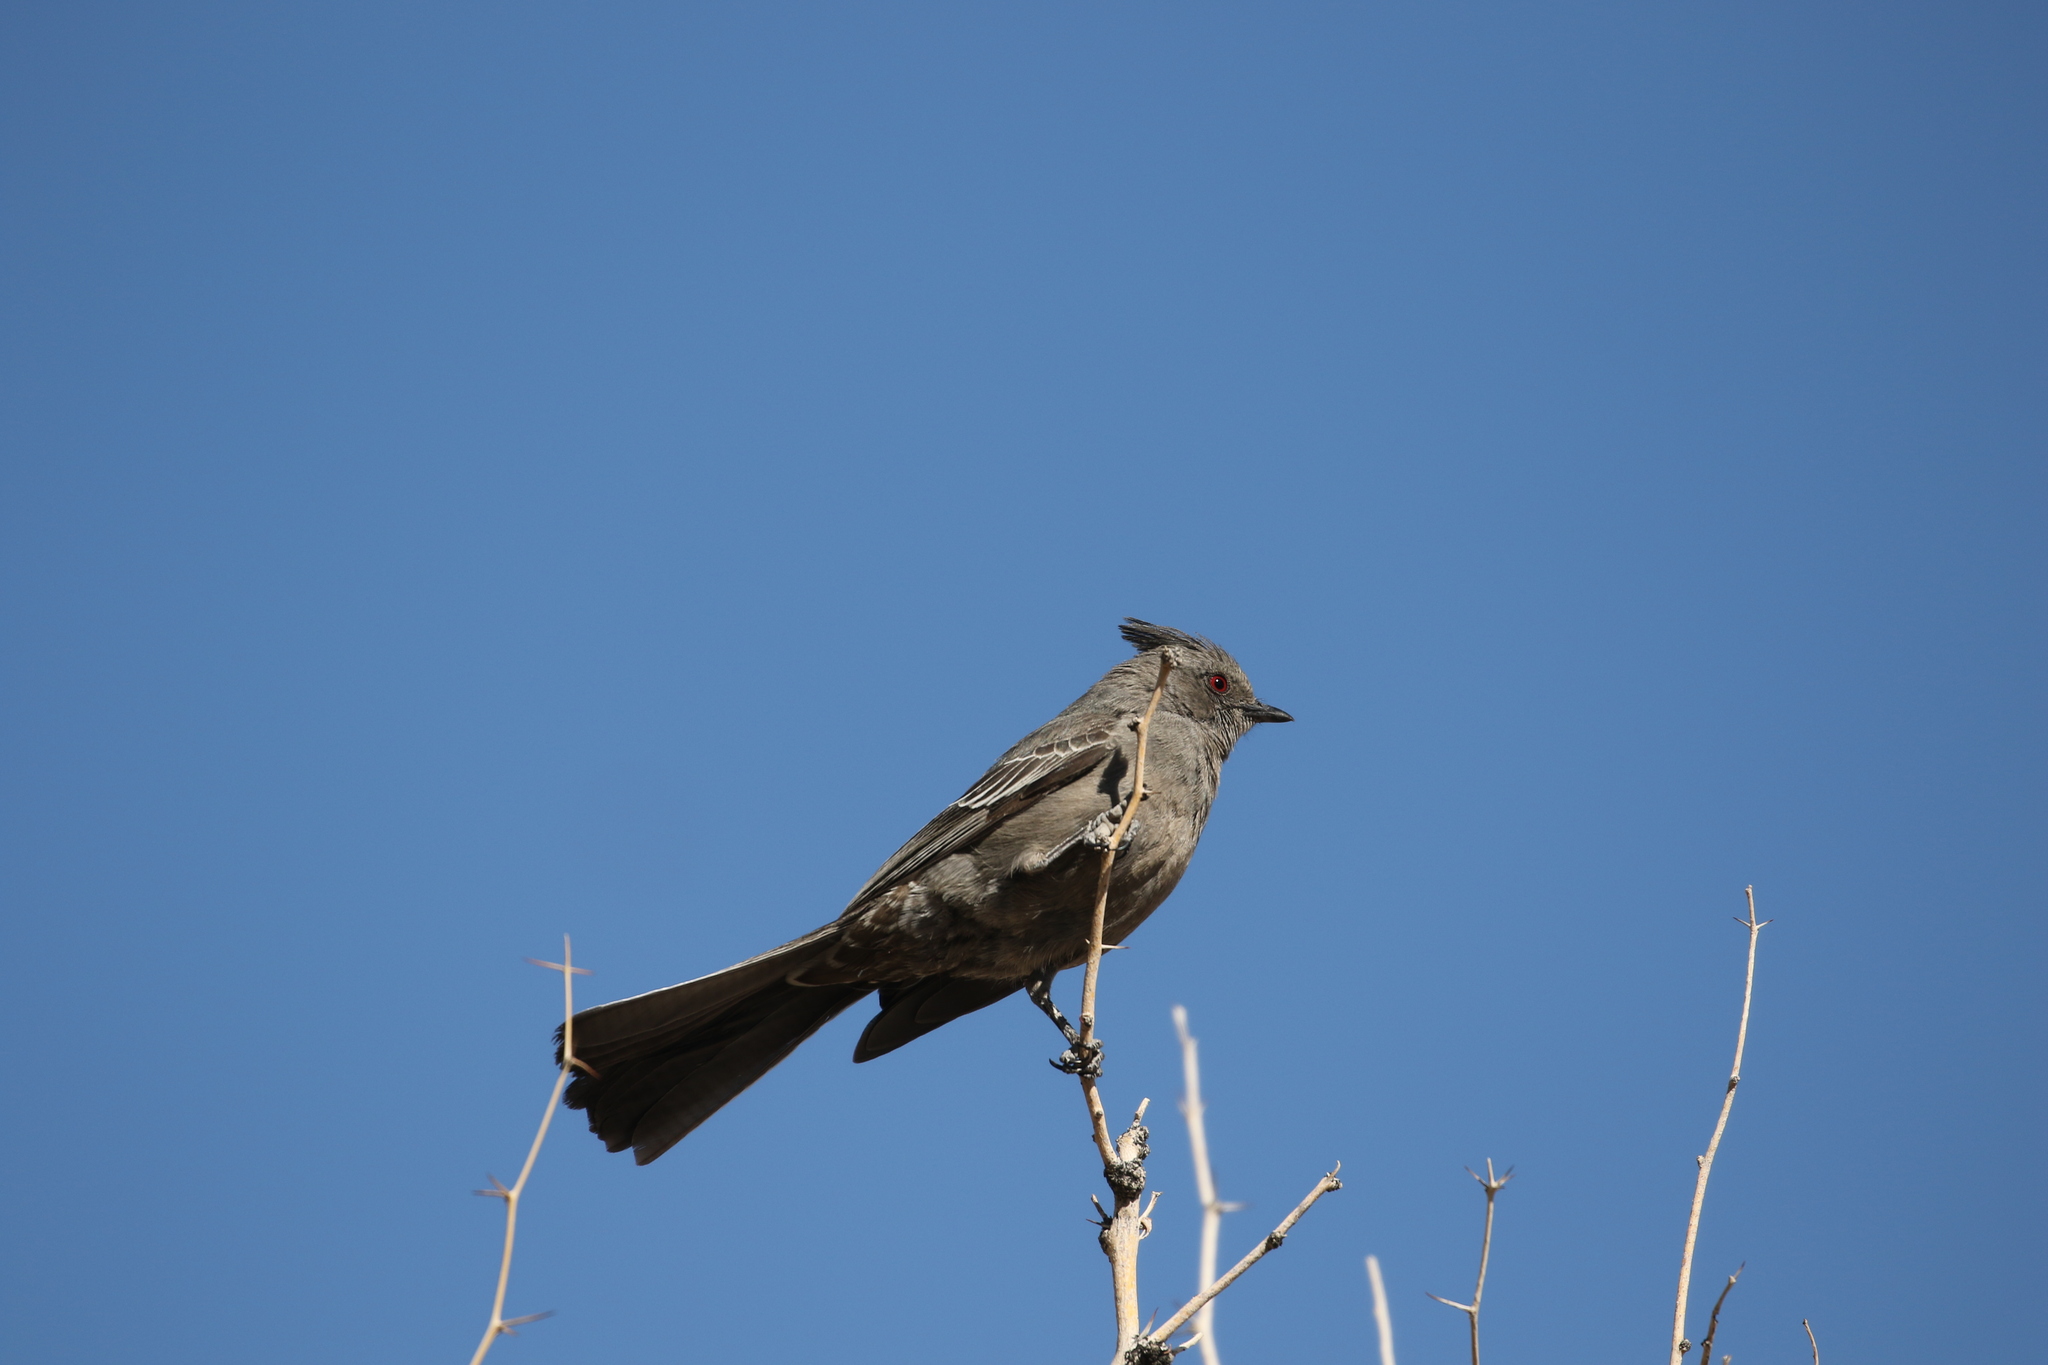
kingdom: Animalia
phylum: Chordata
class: Aves
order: Passeriformes
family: Ptilogonatidae
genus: Phainopepla
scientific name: Phainopepla nitens
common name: Phainopepla
